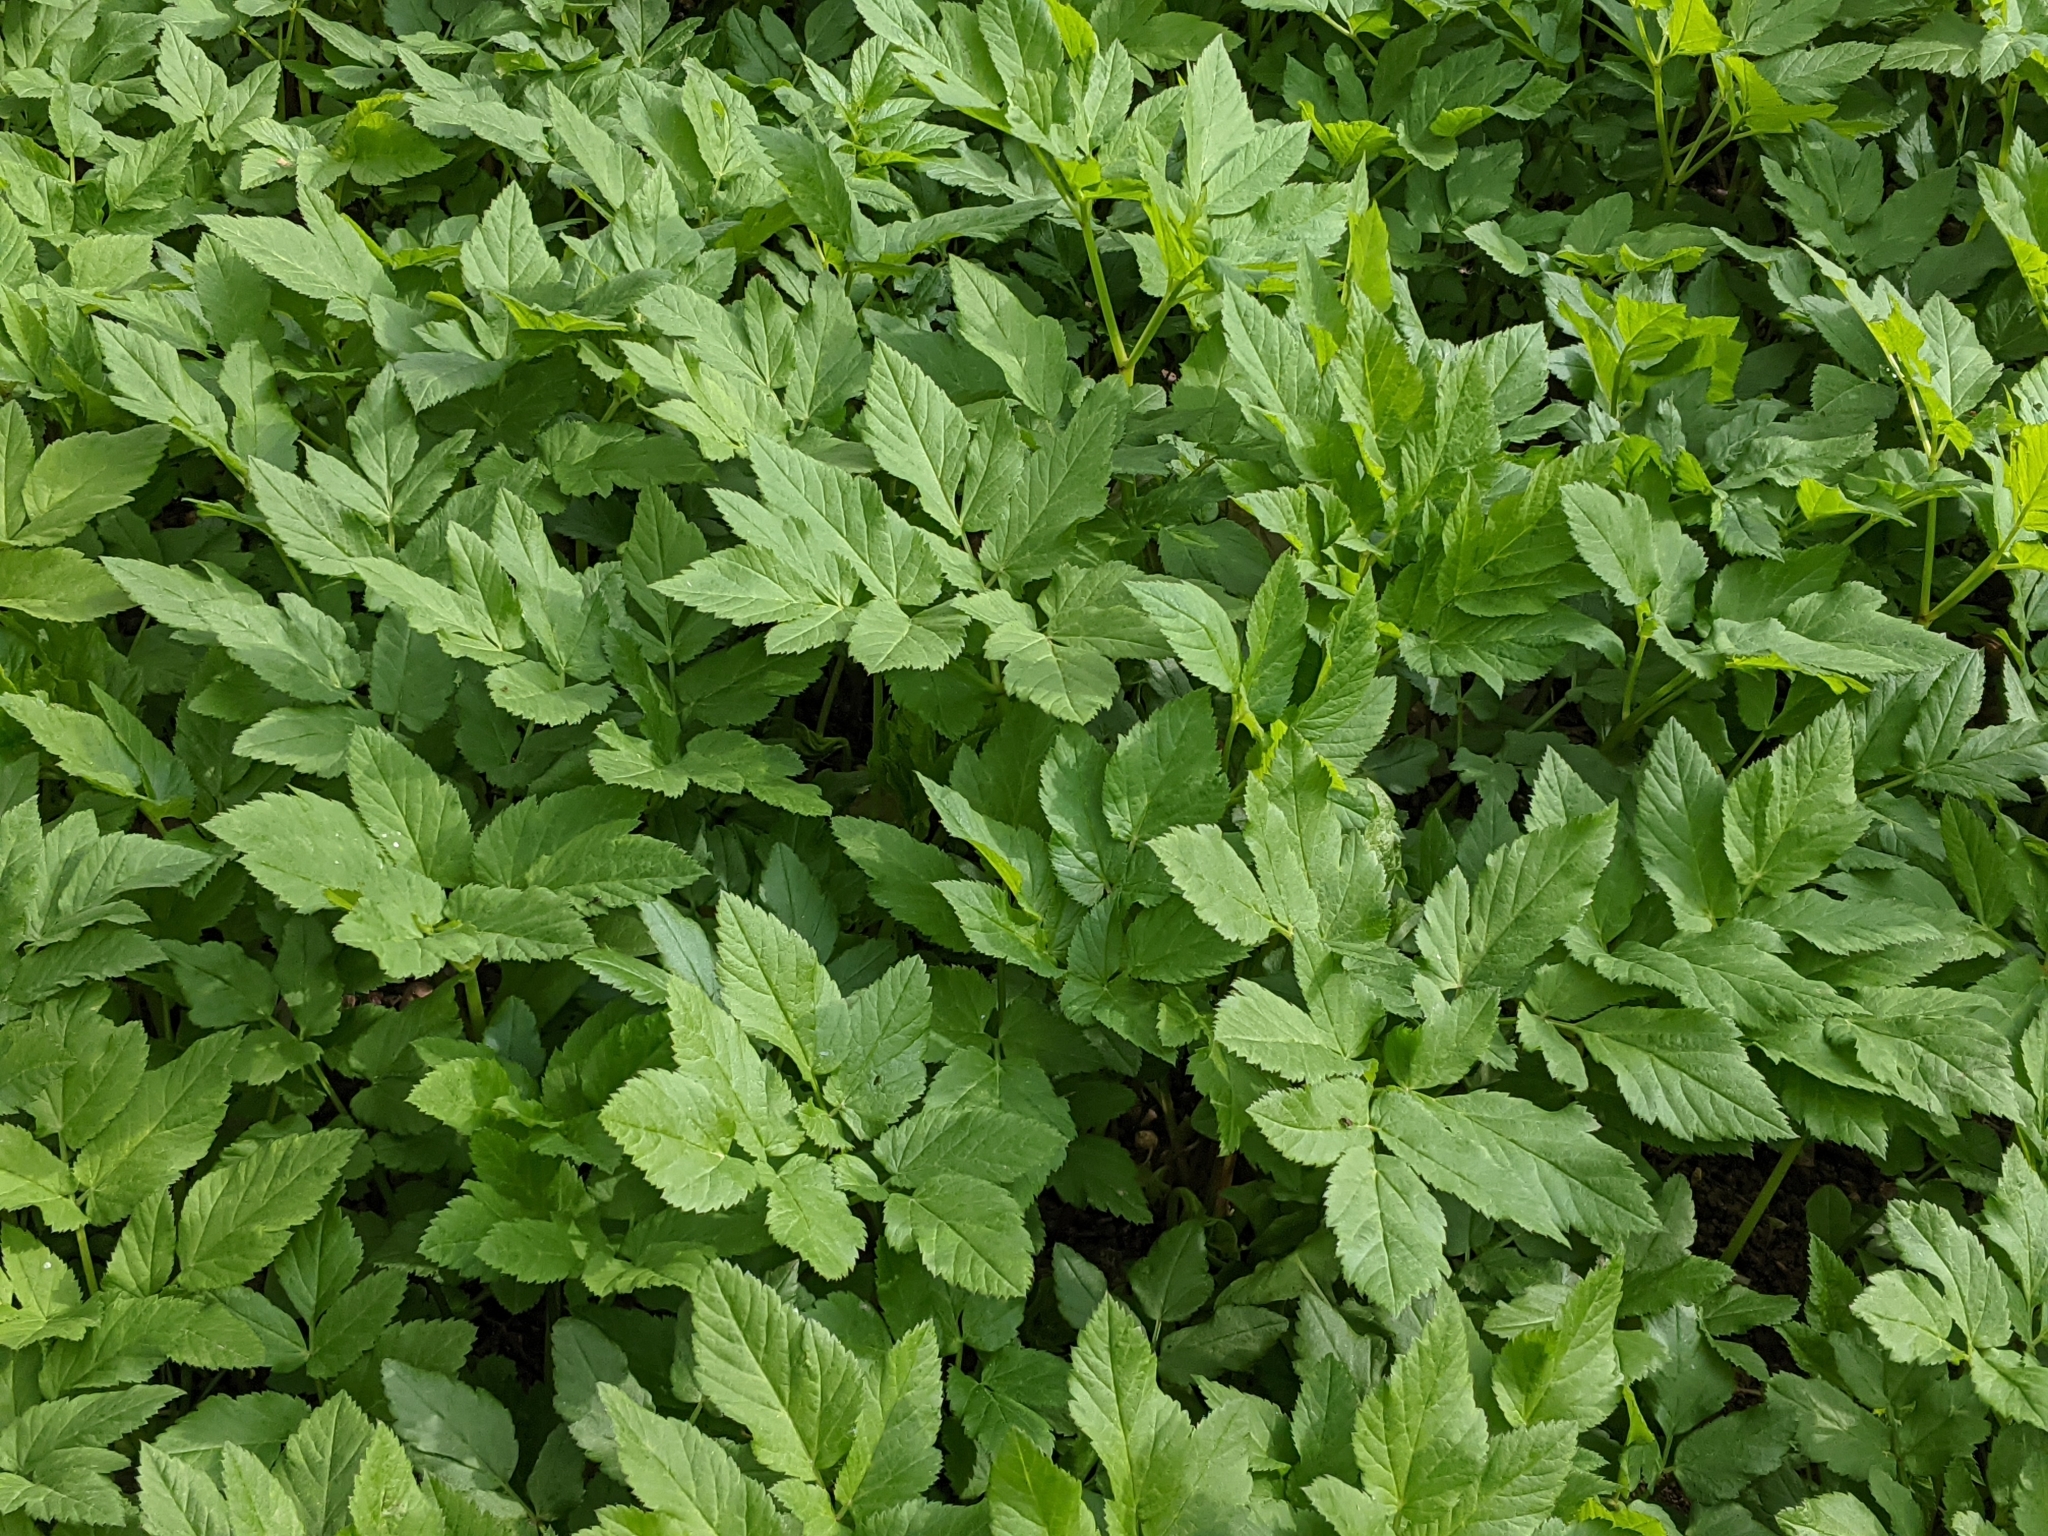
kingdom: Plantae
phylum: Tracheophyta
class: Magnoliopsida
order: Apiales
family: Apiaceae
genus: Aegopodium
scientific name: Aegopodium podagraria
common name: Ground-elder
